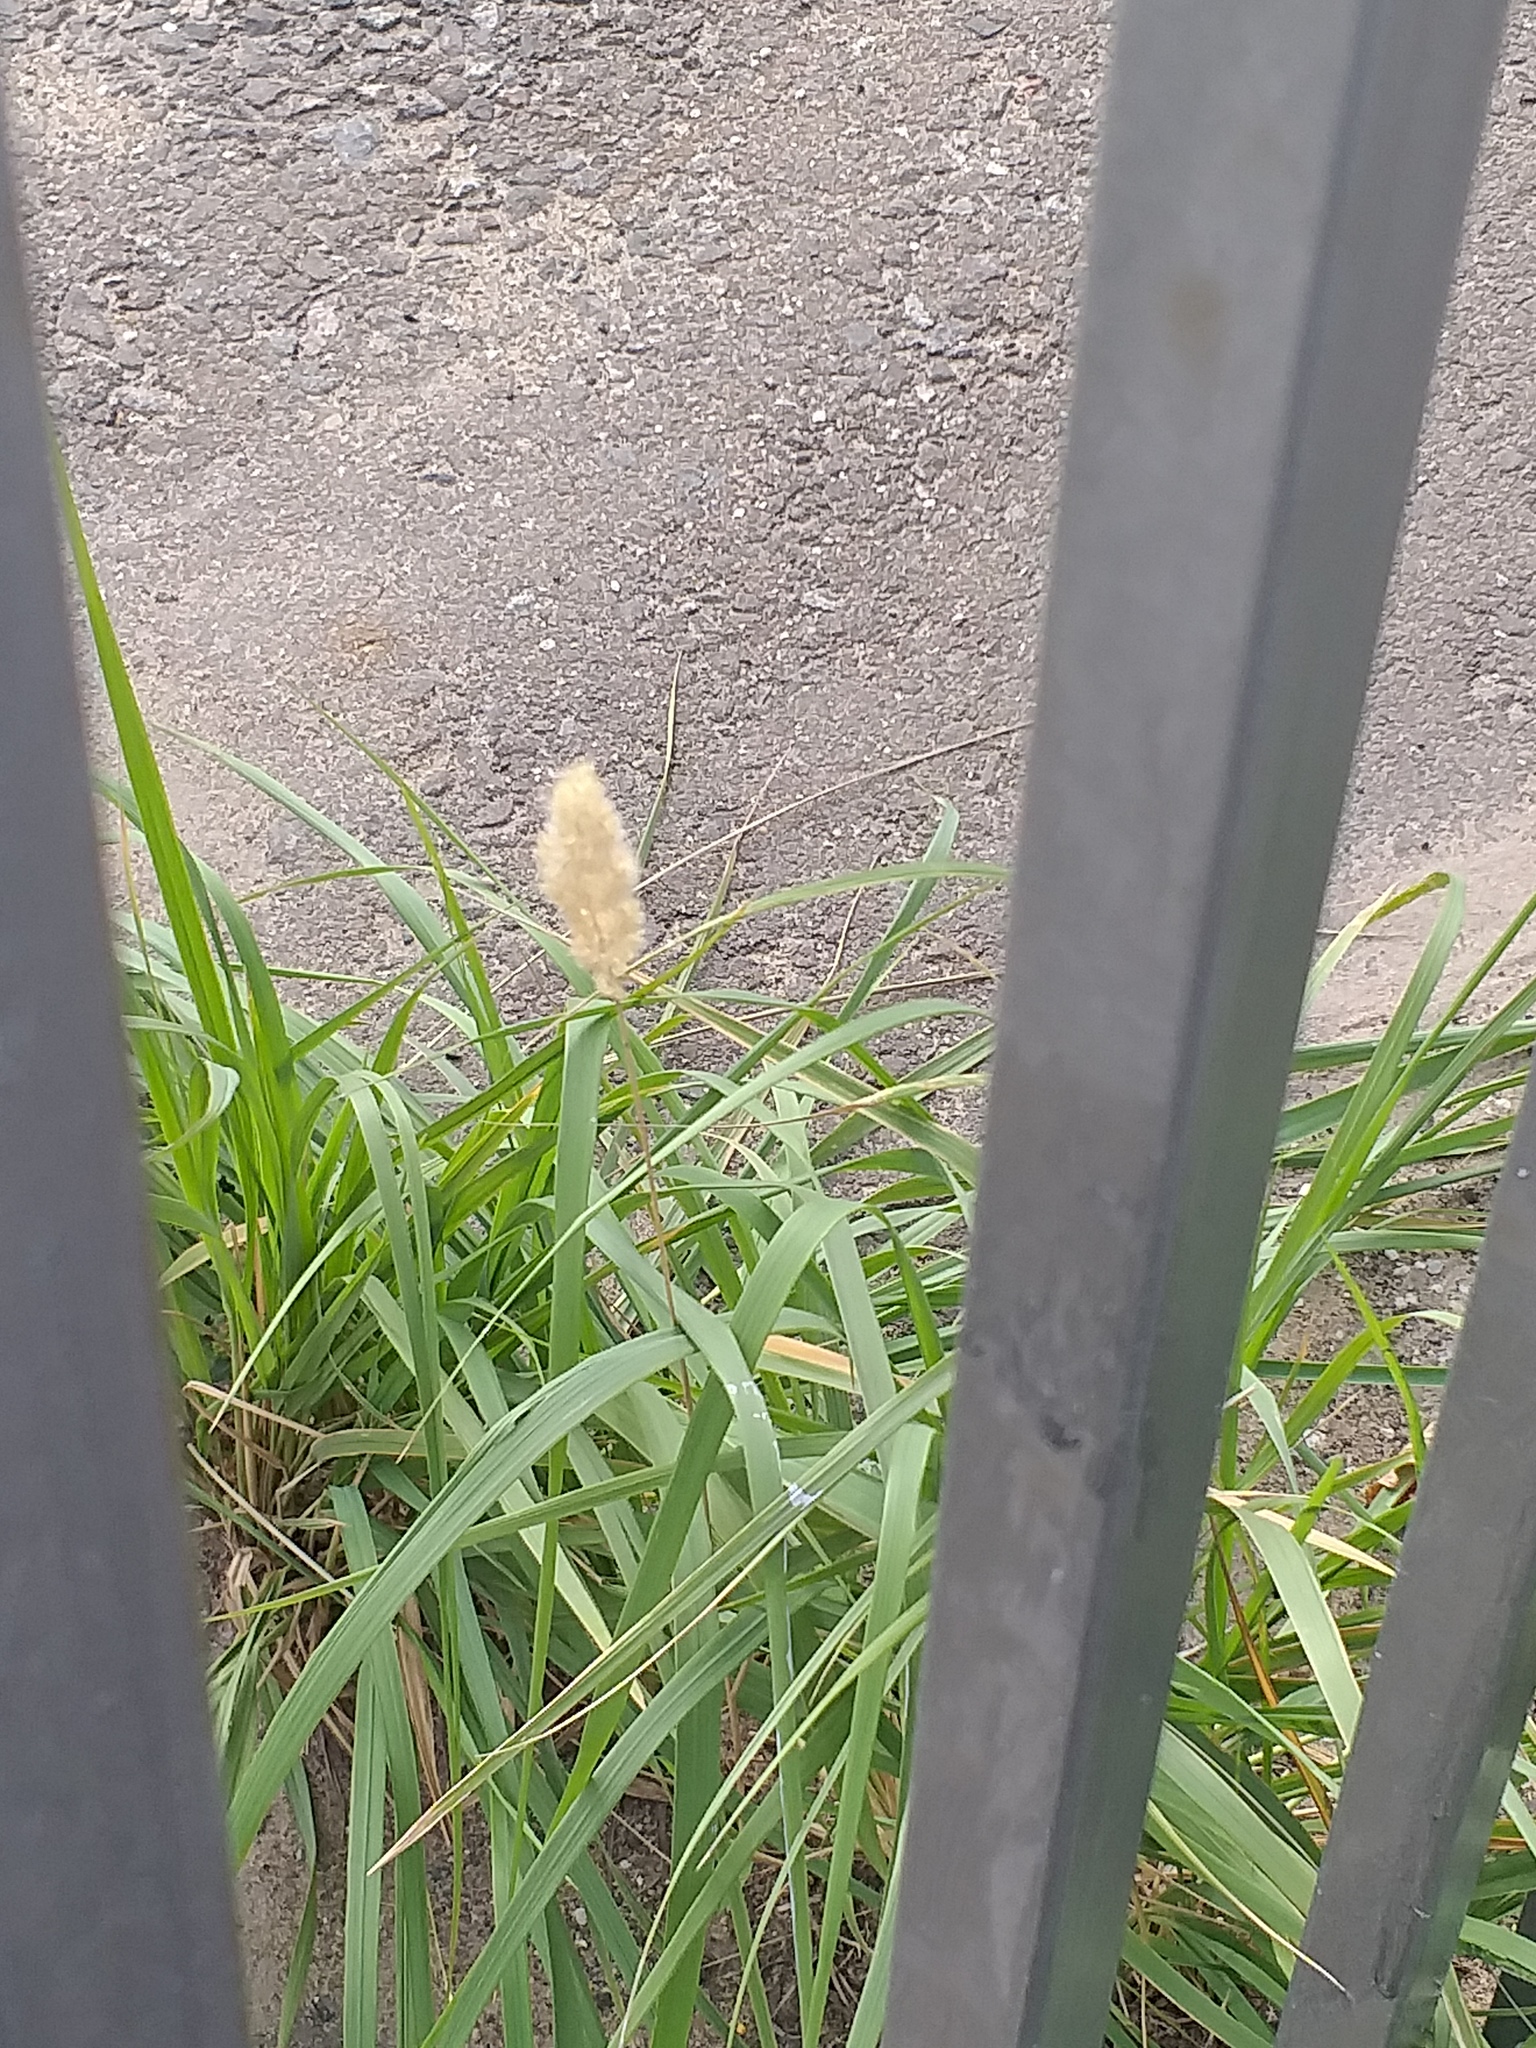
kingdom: Plantae
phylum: Tracheophyta
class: Liliopsida
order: Poales
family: Poaceae
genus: Calamagrostis
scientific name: Calamagrostis epigejos
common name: Wood small-reed
